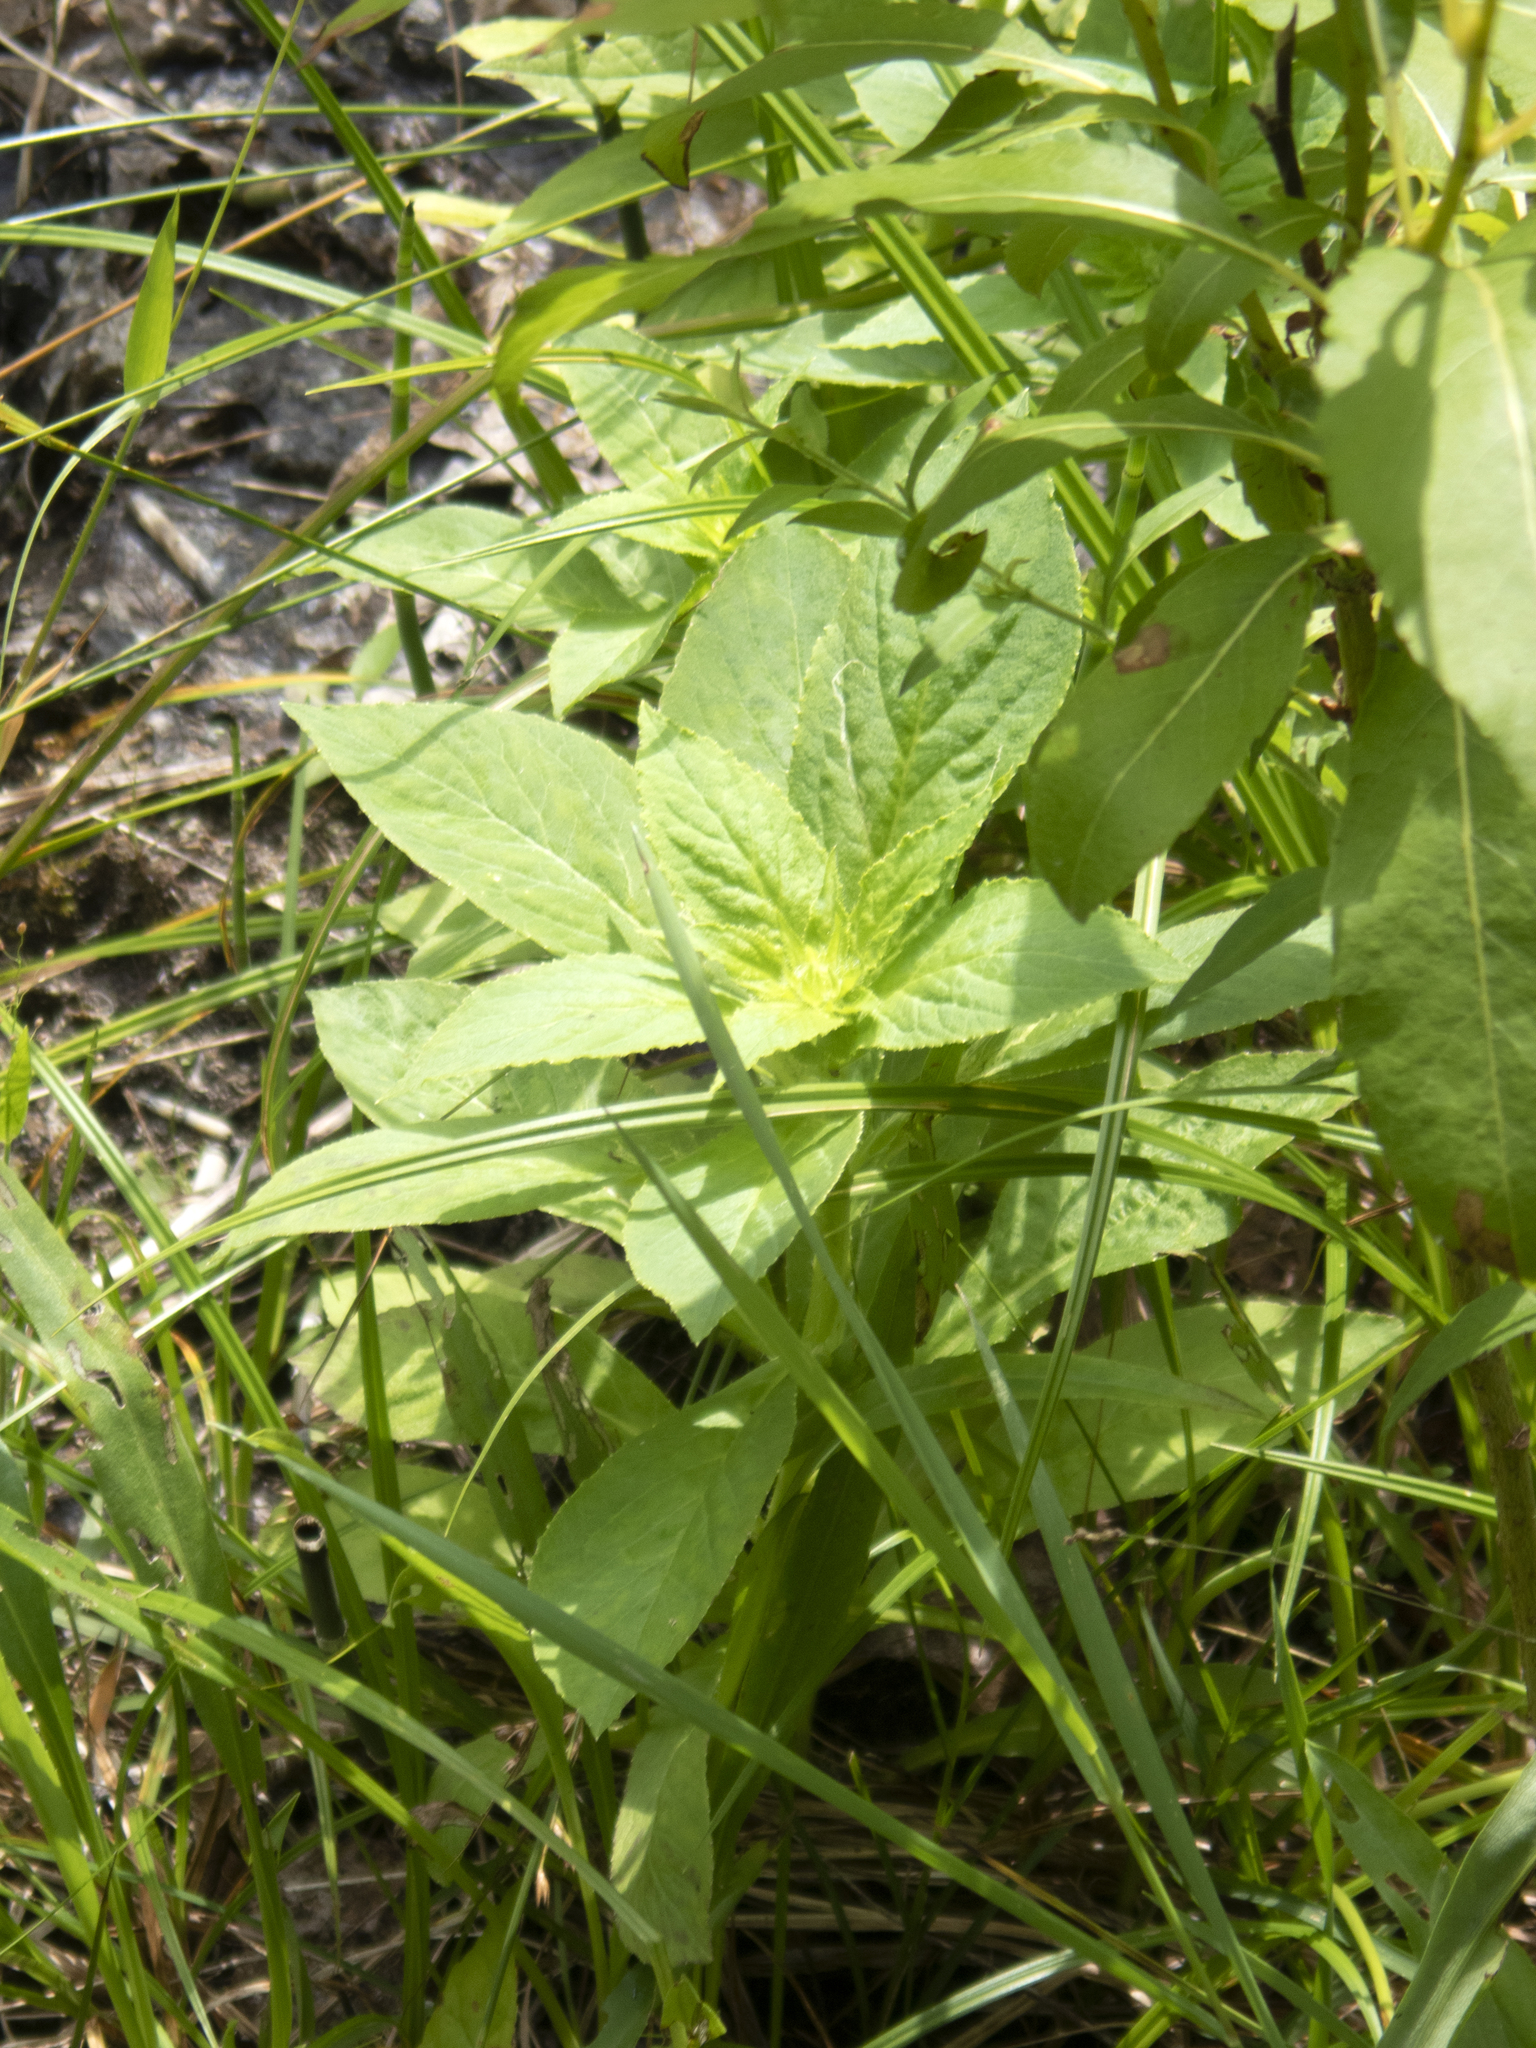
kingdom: Plantae
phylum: Tracheophyta
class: Magnoliopsida
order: Asterales
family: Campanulaceae
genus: Lobelia
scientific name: Lobelia siphilitica
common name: Great lobelia
